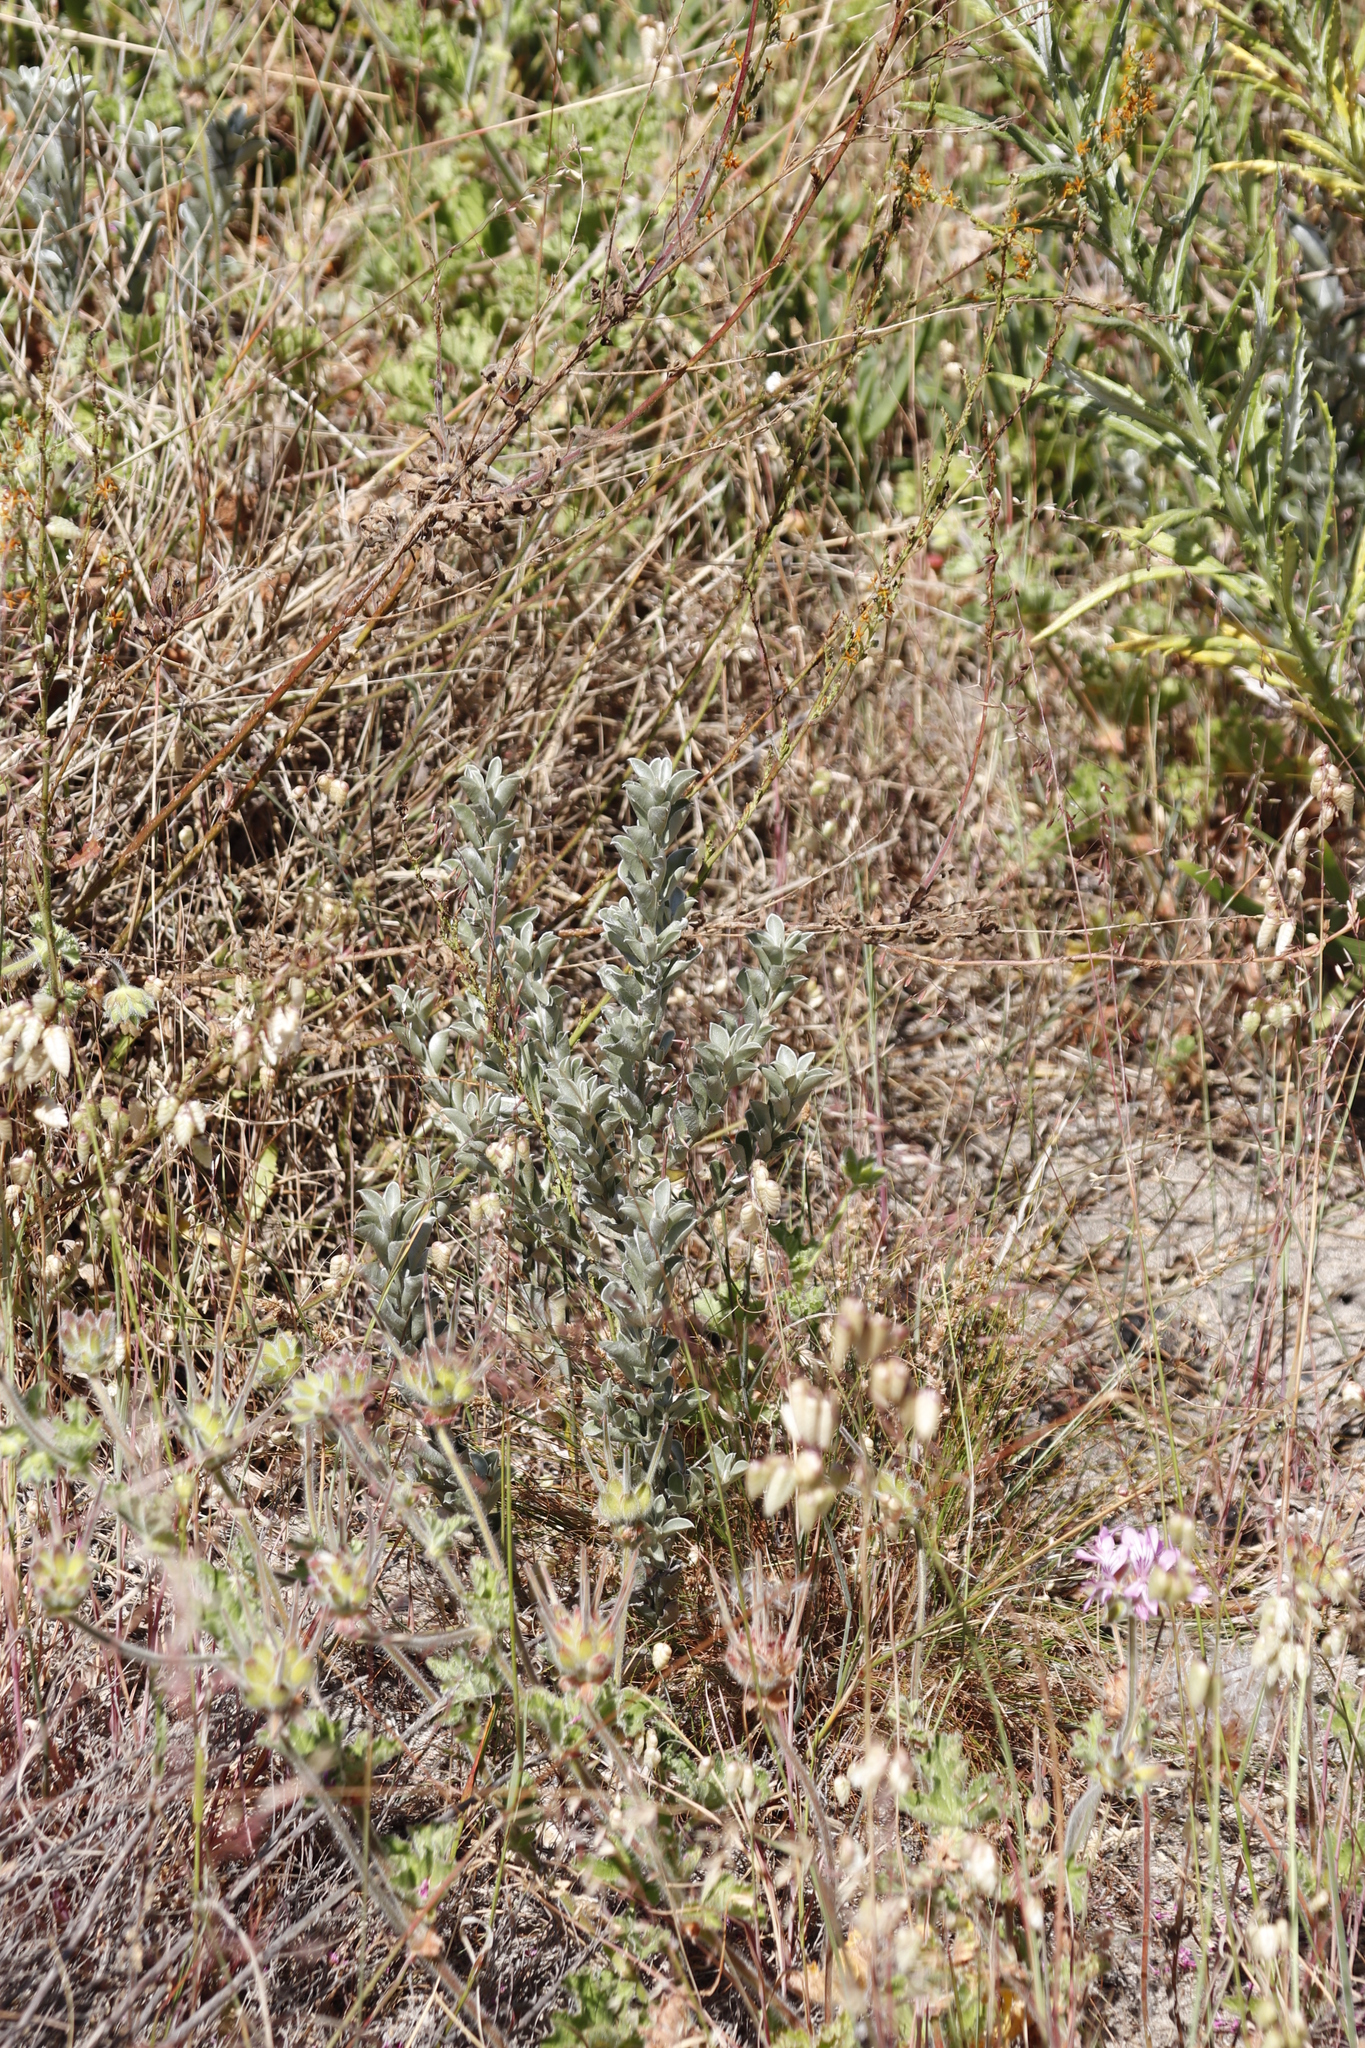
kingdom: Plantae
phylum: Tracheophyta
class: Magnoliopsida
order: Fabales
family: Fabaceae
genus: Podalyria
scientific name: Podalyria sericea
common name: Silver podalyria
